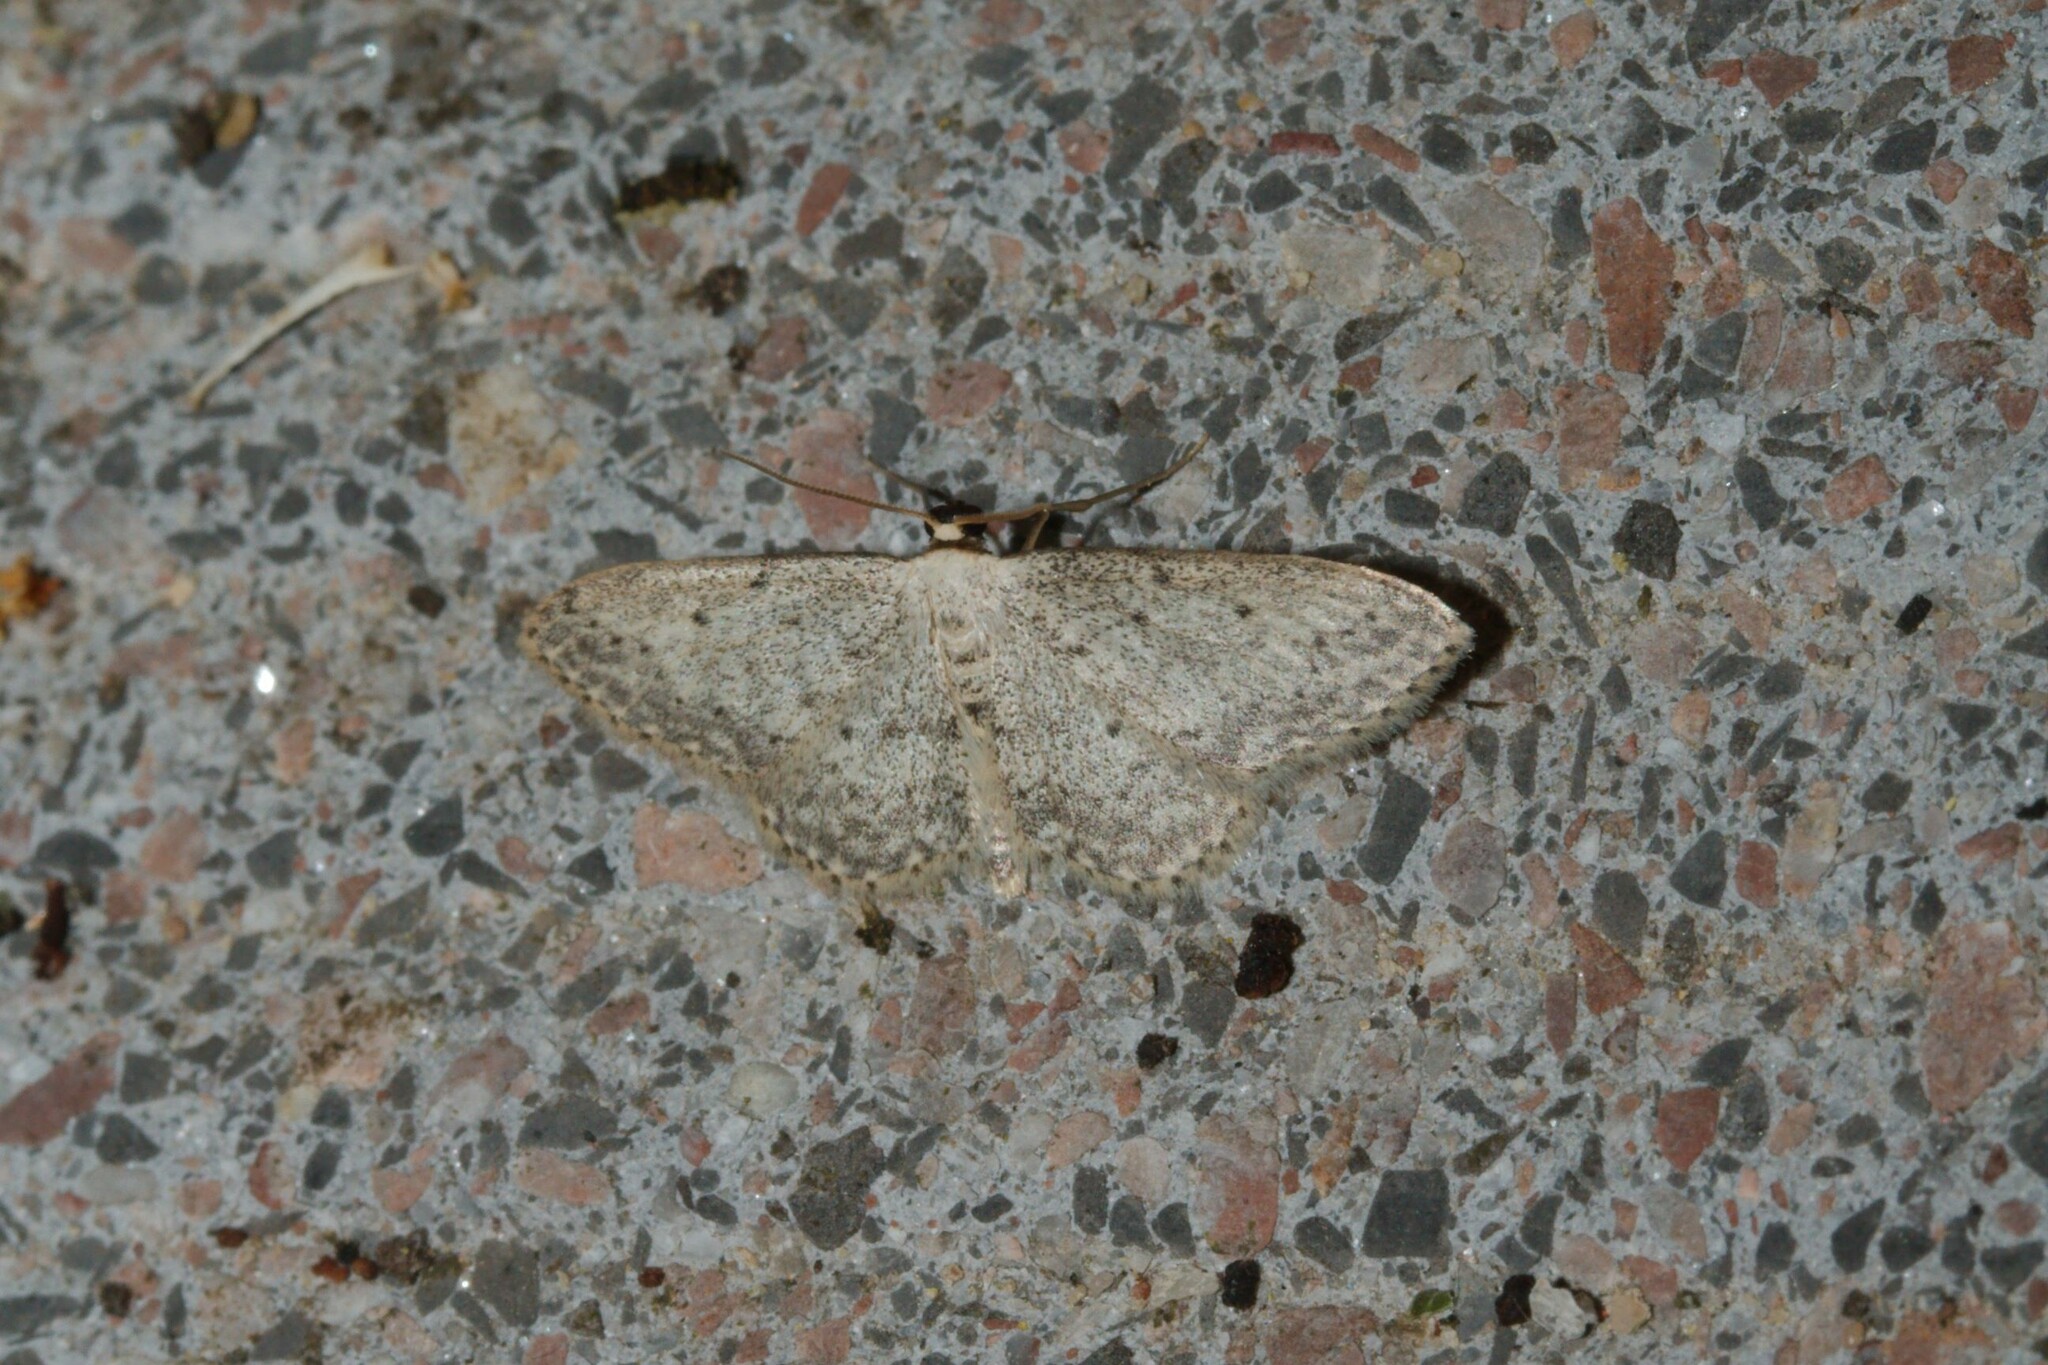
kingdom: Animalia
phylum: Arthropoda
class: Insecta
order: Lepidoptera
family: Geometridae
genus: Idaea
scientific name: Idaea seriata
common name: Small dusty wave
